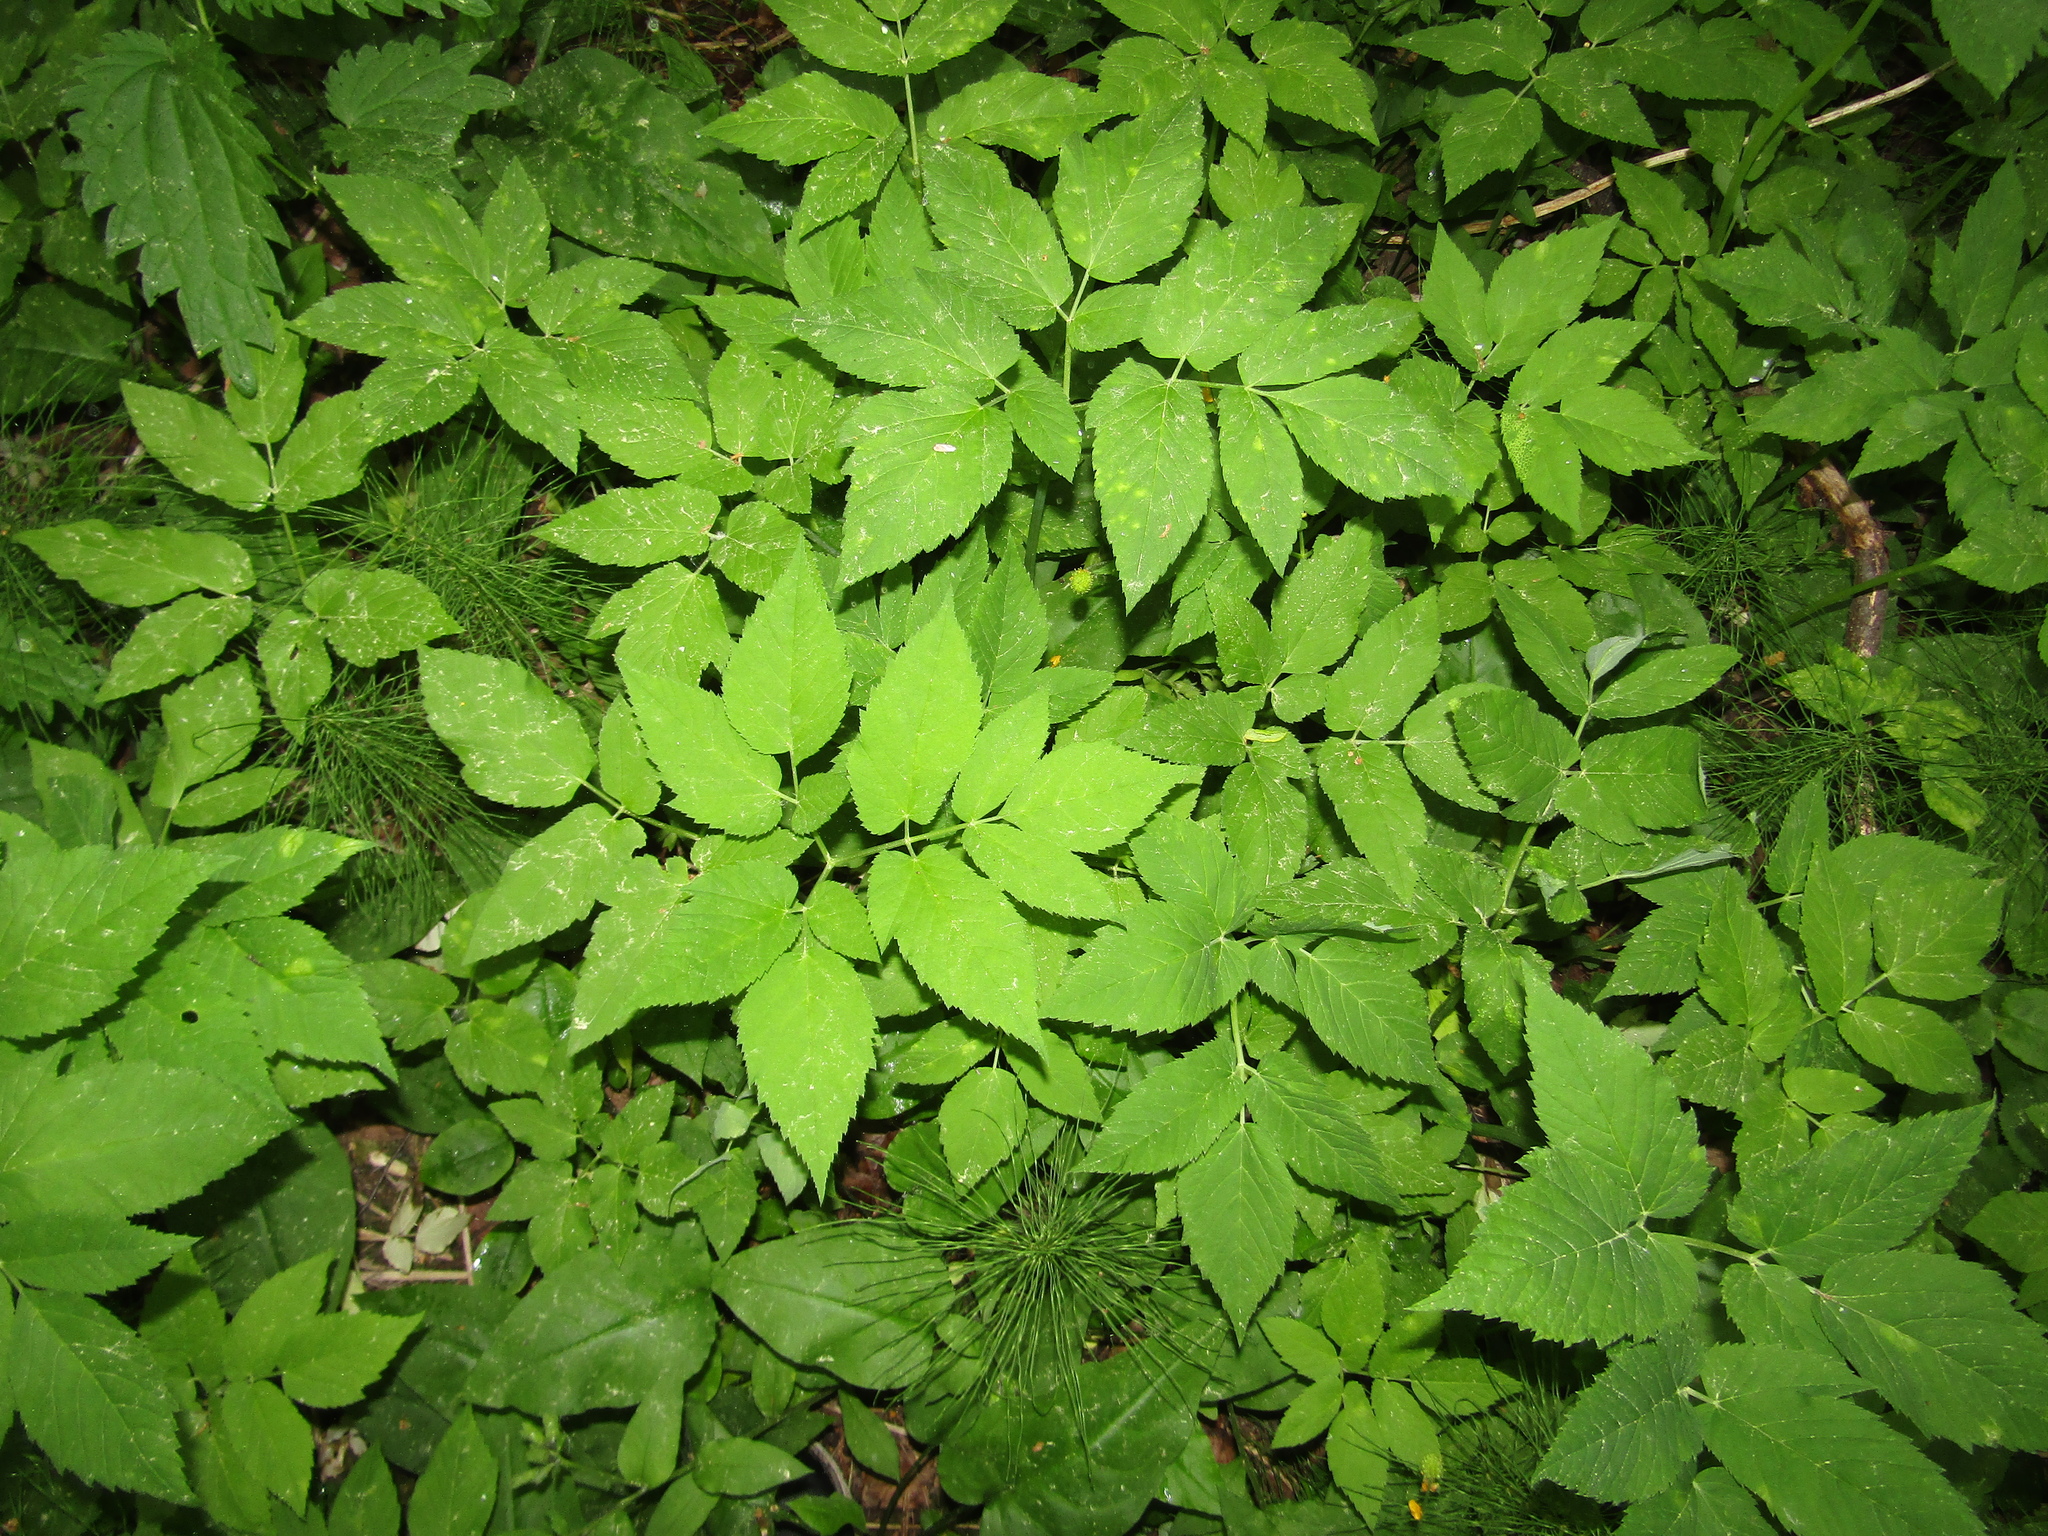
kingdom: Plantae
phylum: Tracheophyta
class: Magnoliopsida
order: Apiales
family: Apiaceae
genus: Aegopodium
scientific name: Aegopodium podagraria
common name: Ground-elder
